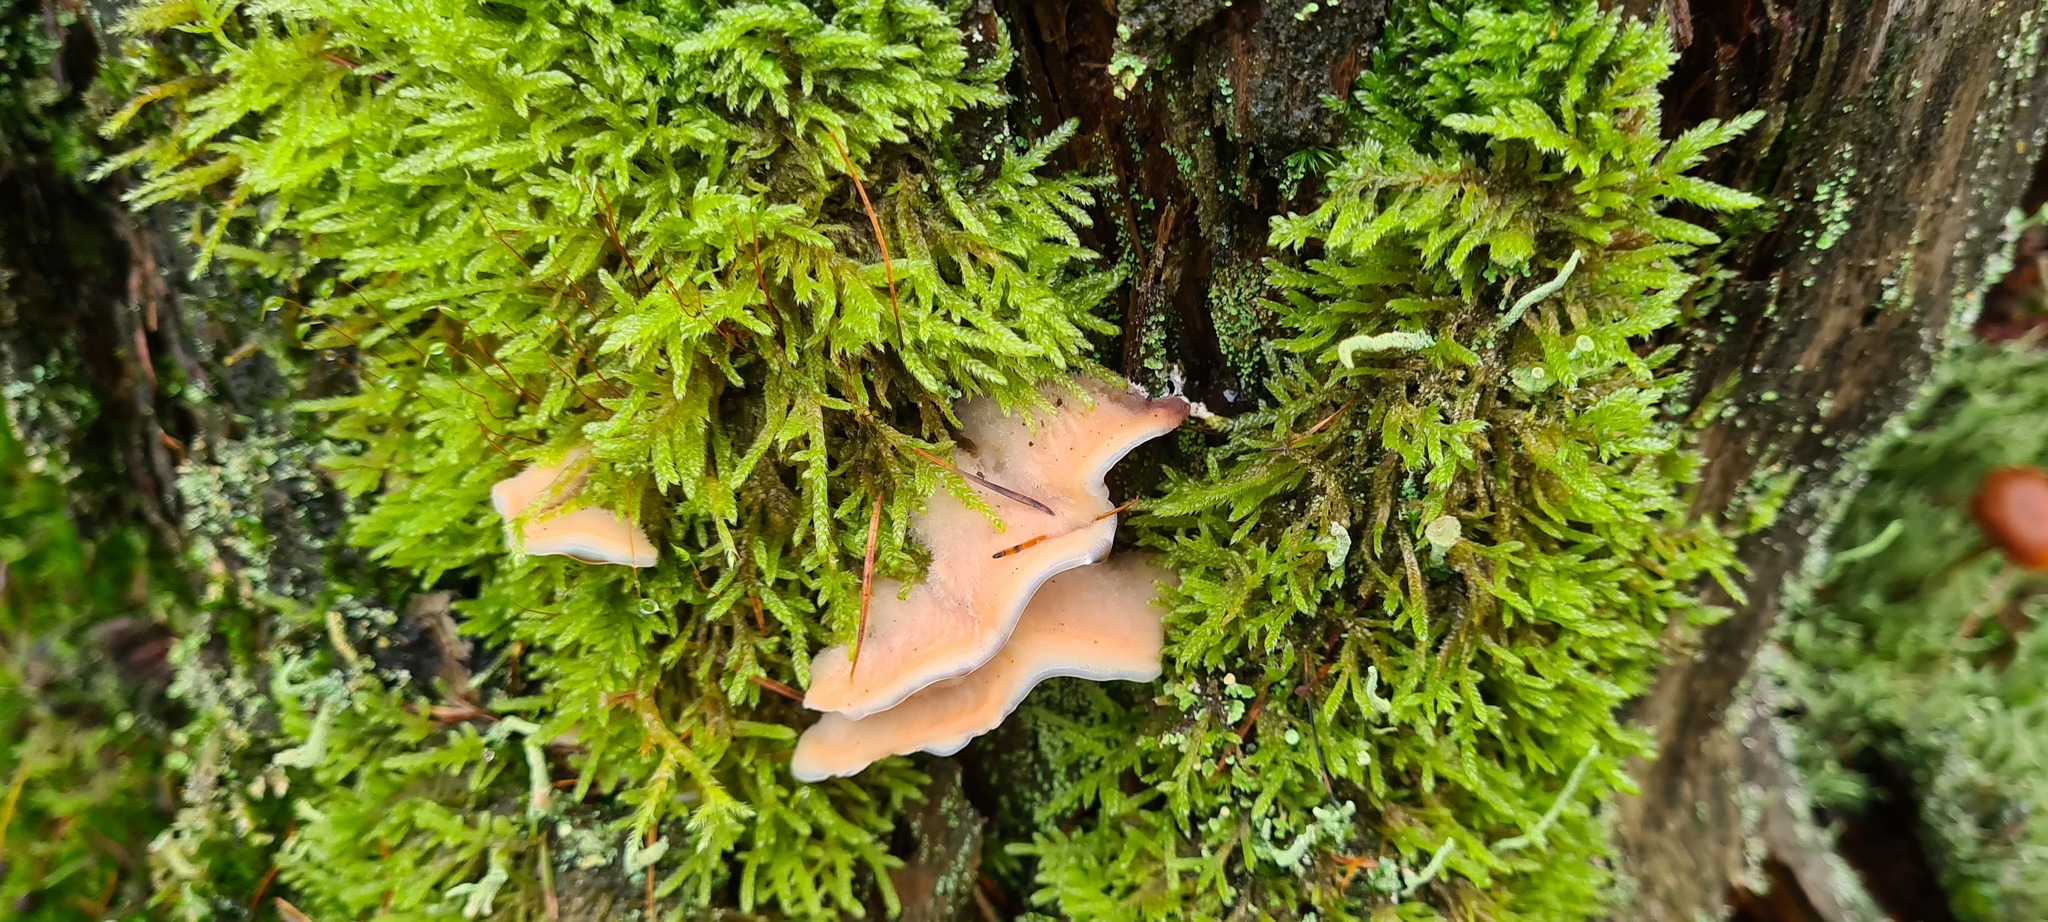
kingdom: Fungi
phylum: Basidiomycota
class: Agaricomycetes
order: Polyporales
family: Meruliaceae
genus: Phlebia
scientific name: Phlebia tremellosa
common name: Jelly rot
